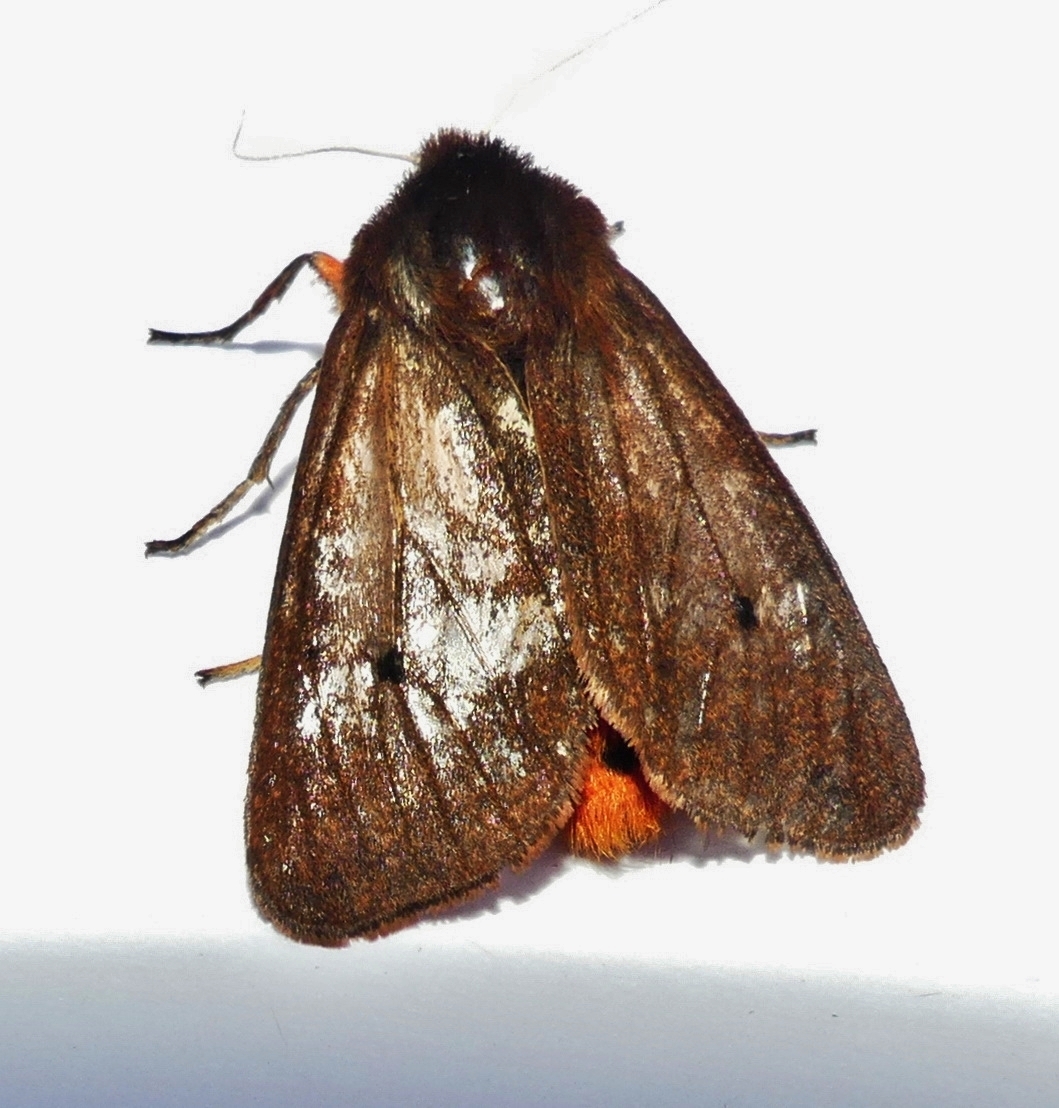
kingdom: Animalia
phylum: Arthropoda
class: Insecta
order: Lepidoptera
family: Erebidae
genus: Phragmatobia
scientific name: Phragmatobia fuliginosa
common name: Ruby tiger
